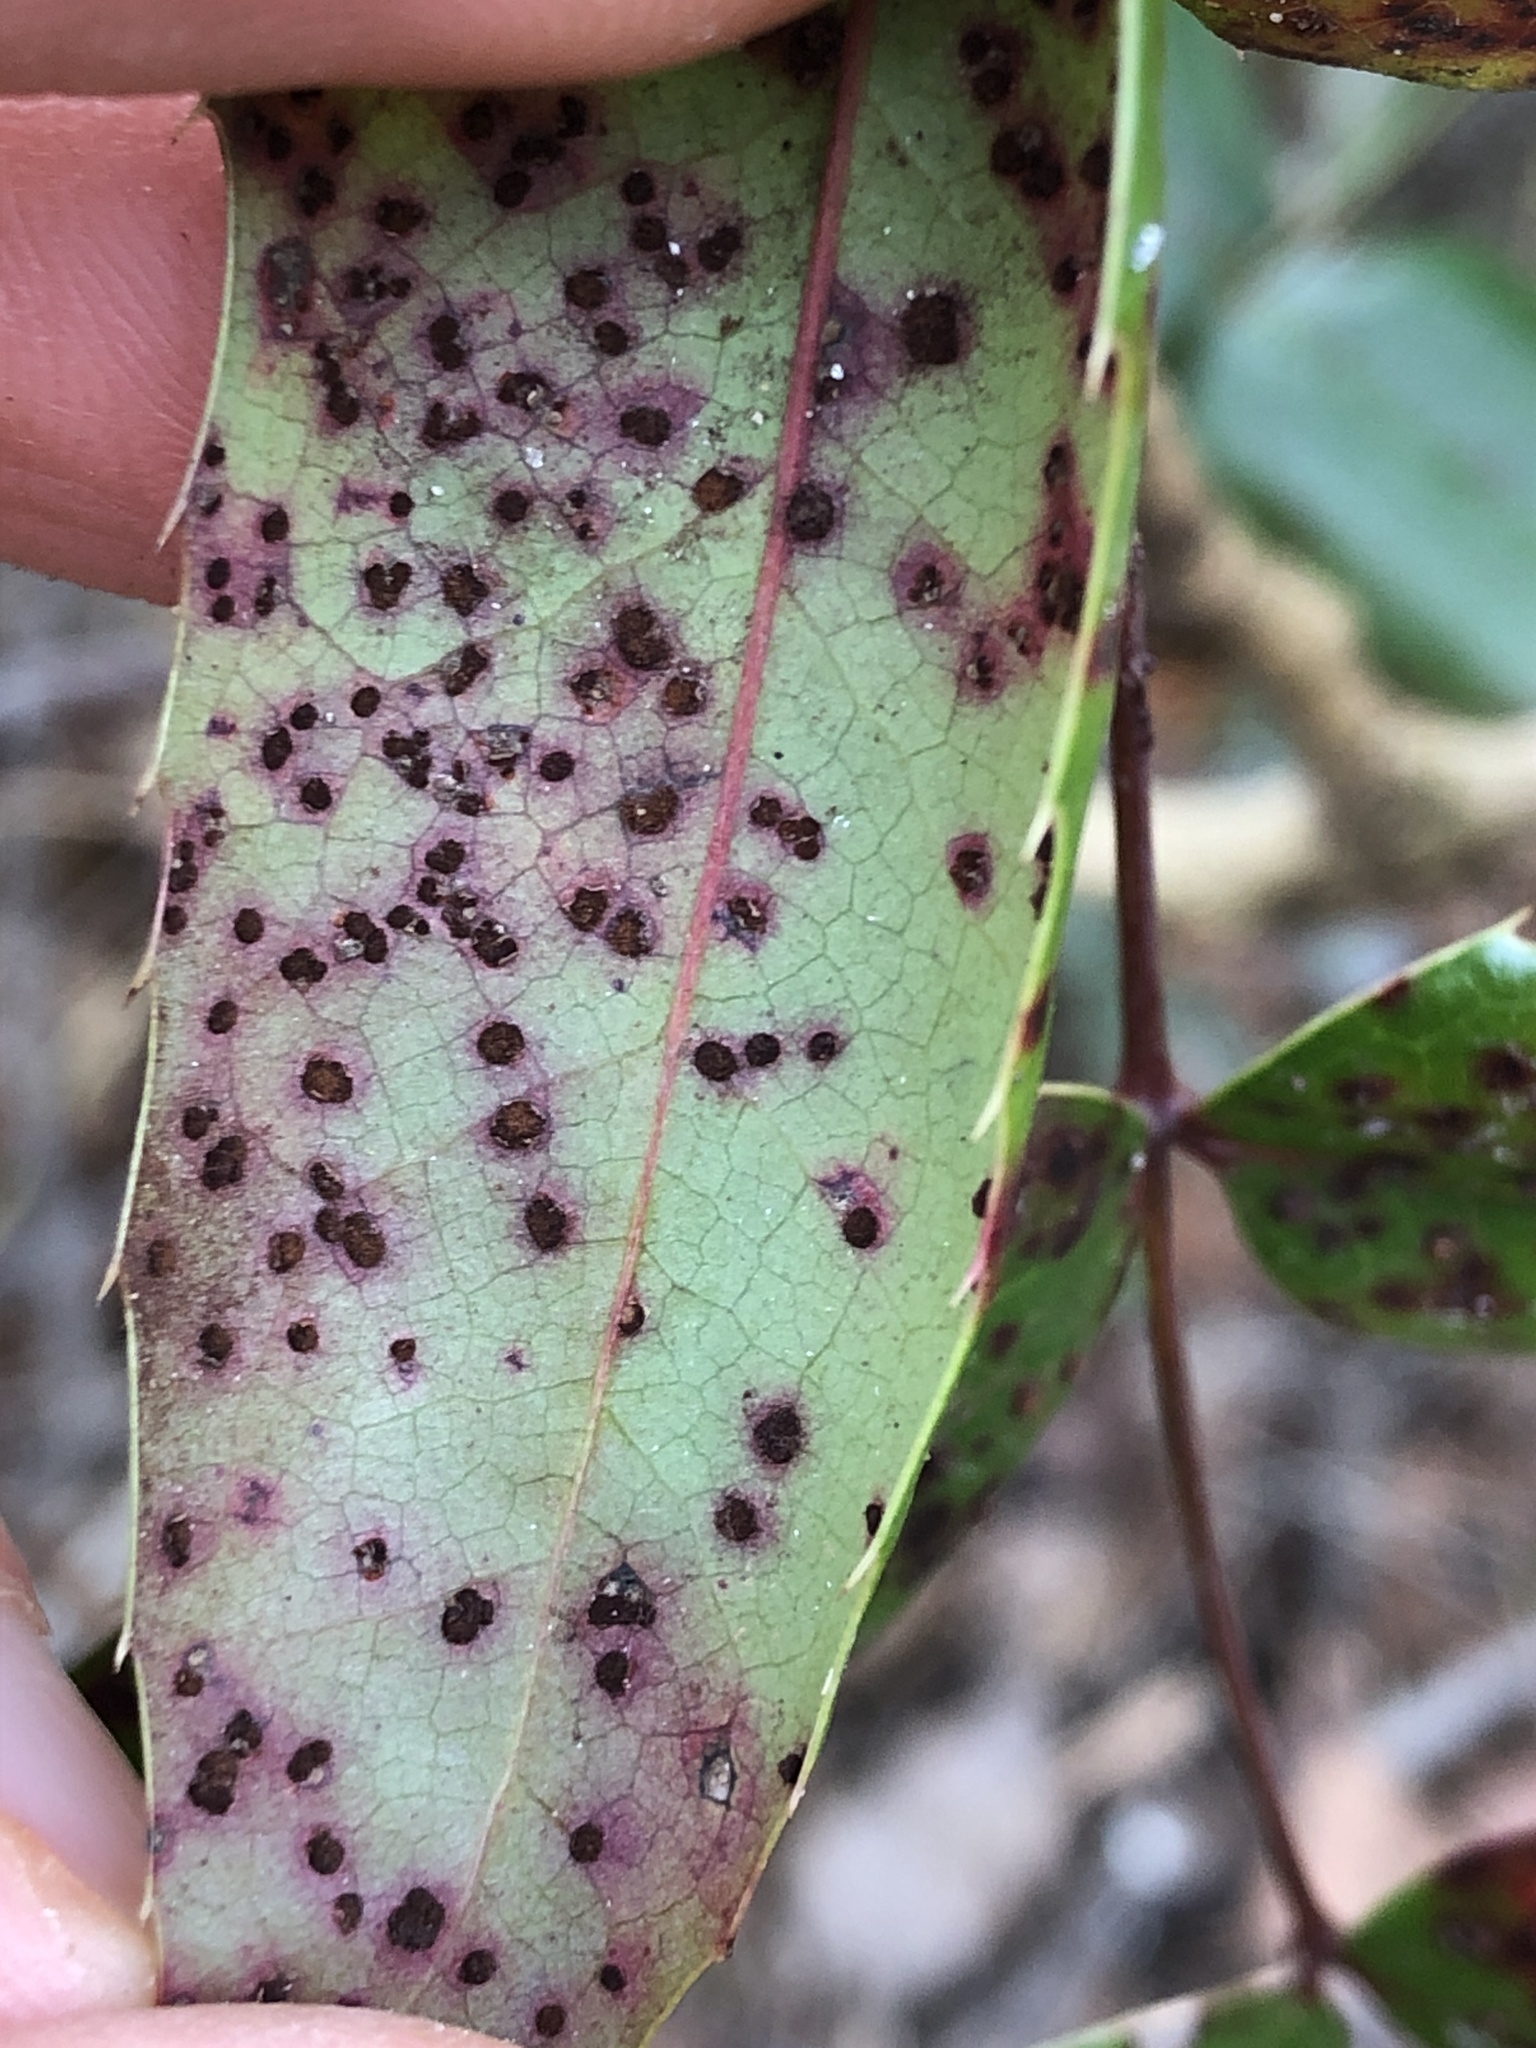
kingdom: Fungi
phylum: Basidiomycota
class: Pucciniomycetes
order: Pucciniales
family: Pucciniaceae
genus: Cumminsiella
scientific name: Cumminsiella mirabilissima
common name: Mahonia rust
